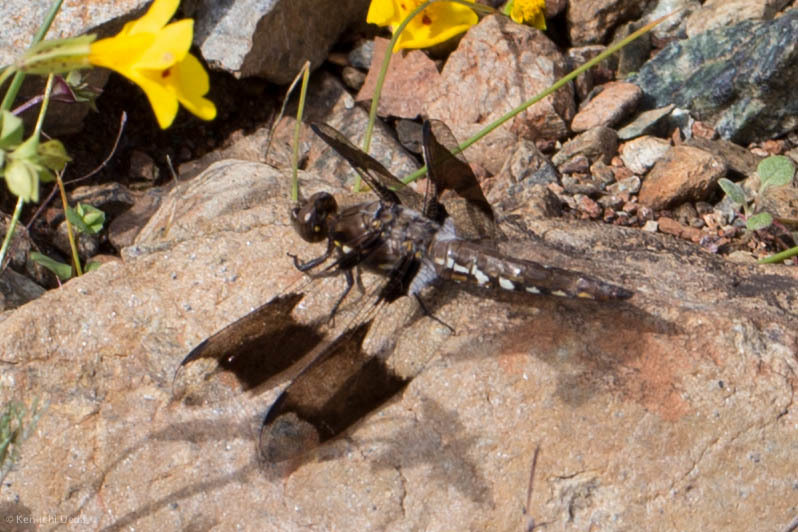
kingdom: Animalia
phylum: Arthropoda
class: Insecta
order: Odonata
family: Libellulidae
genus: Plathemis
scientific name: Plathemis lydia
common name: Common whitetail
